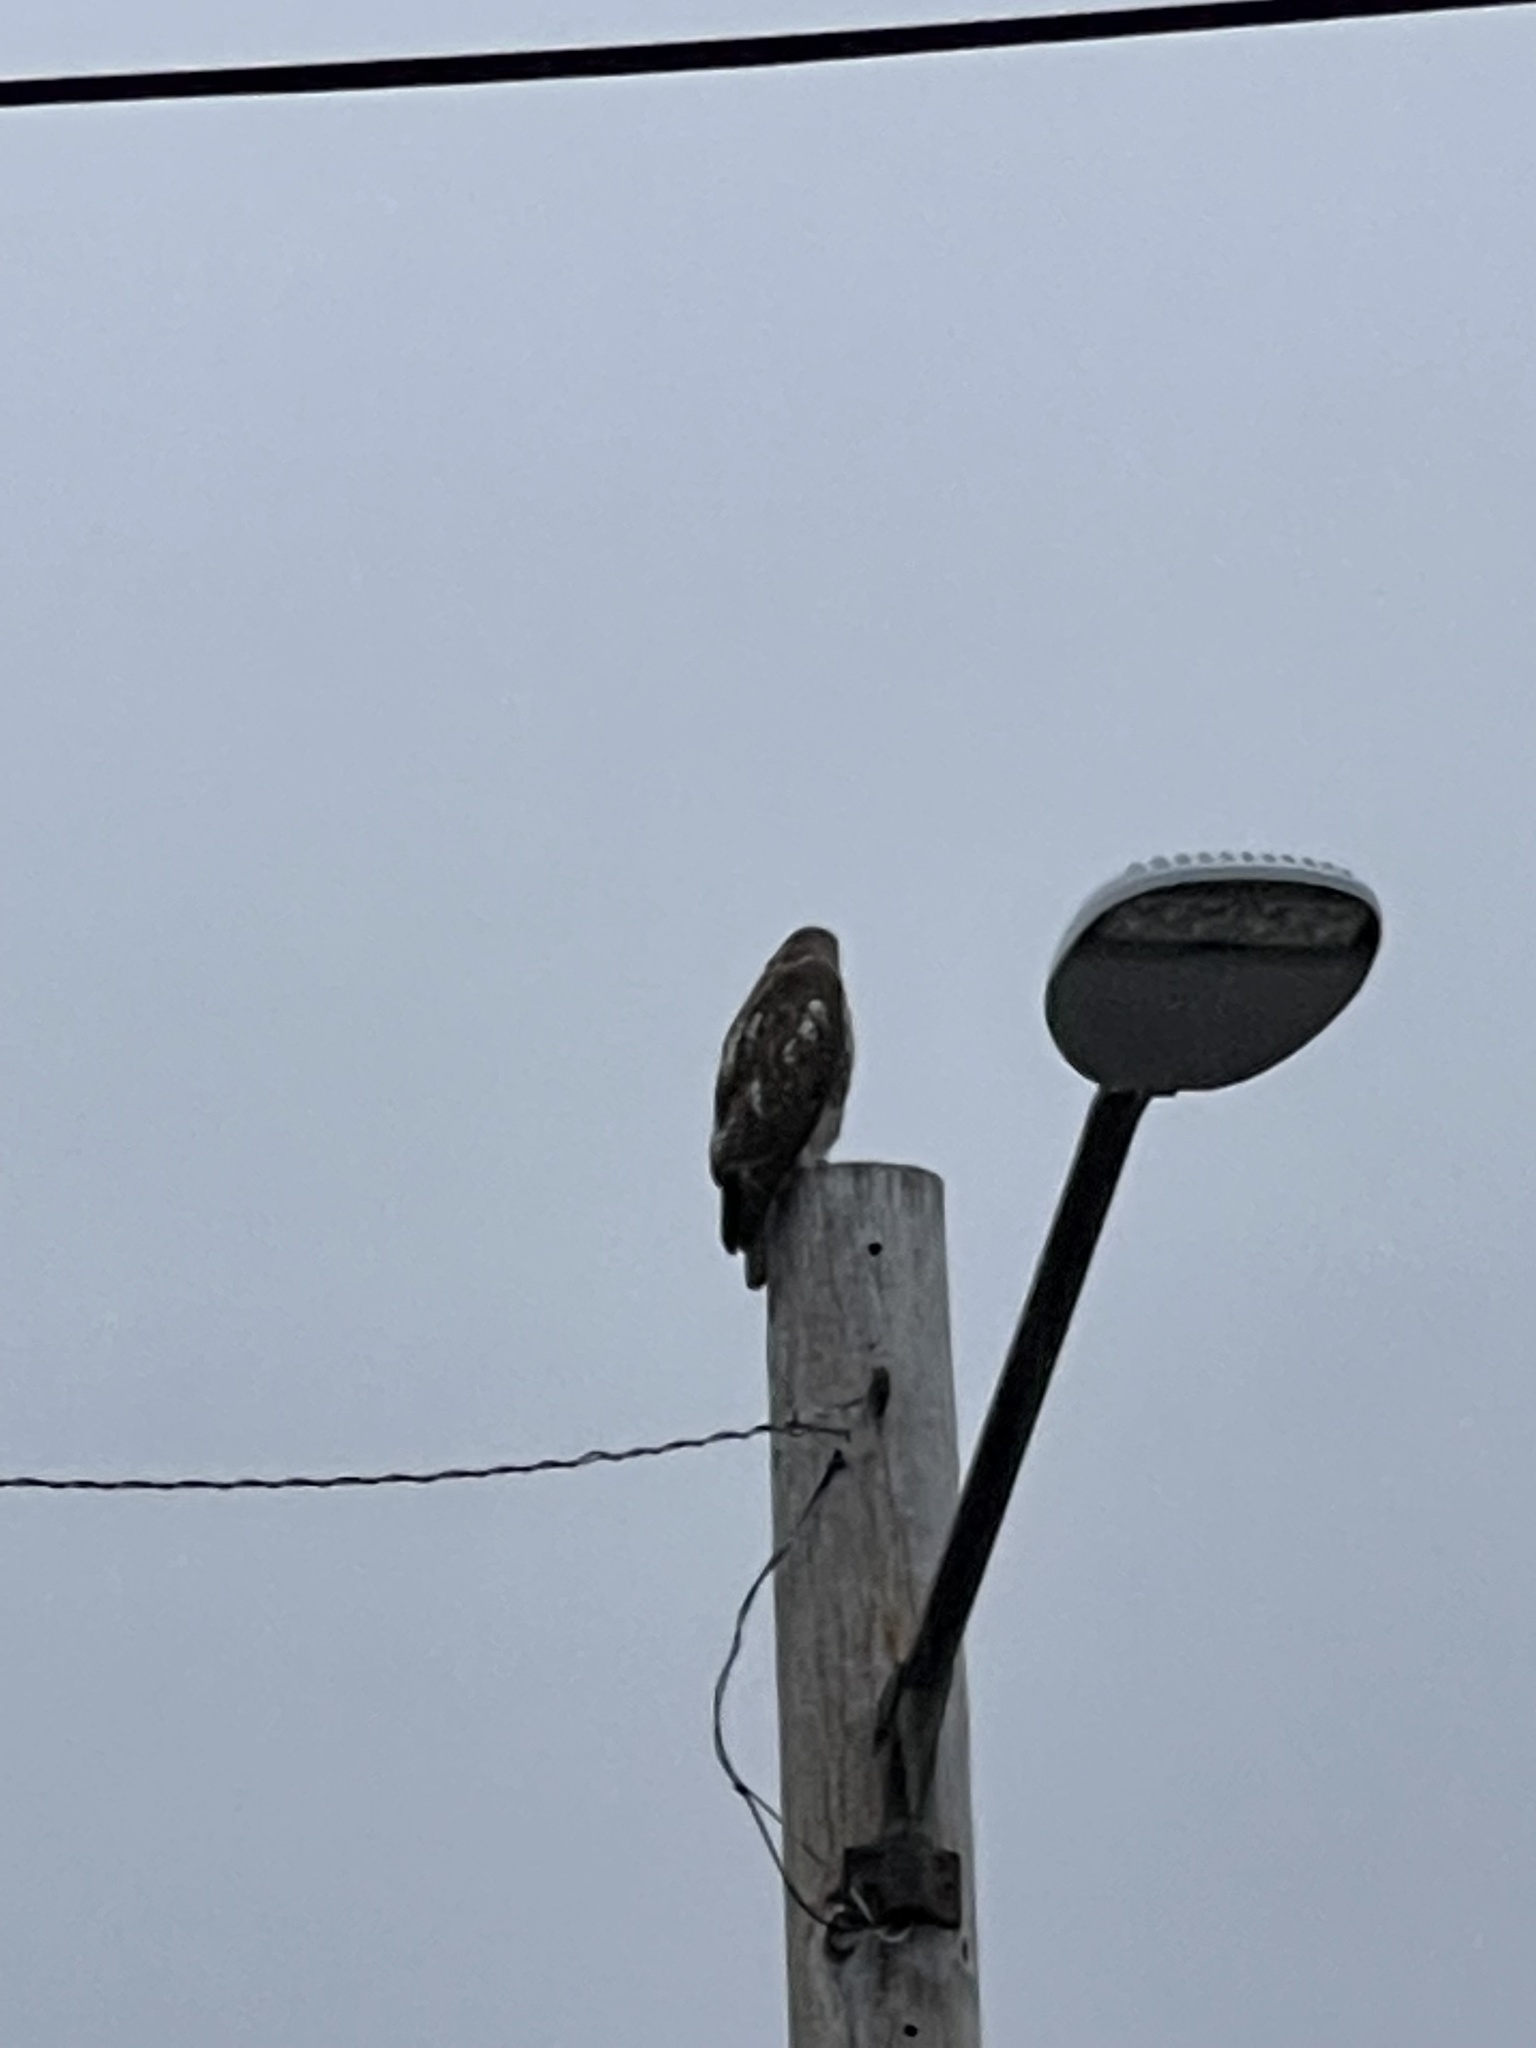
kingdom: Animalia
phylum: Chordata
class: Aves
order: Accipitriformes
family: Accipitridae
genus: Buteo
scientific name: Buteo jamaicensis
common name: Red-tailed hawk
